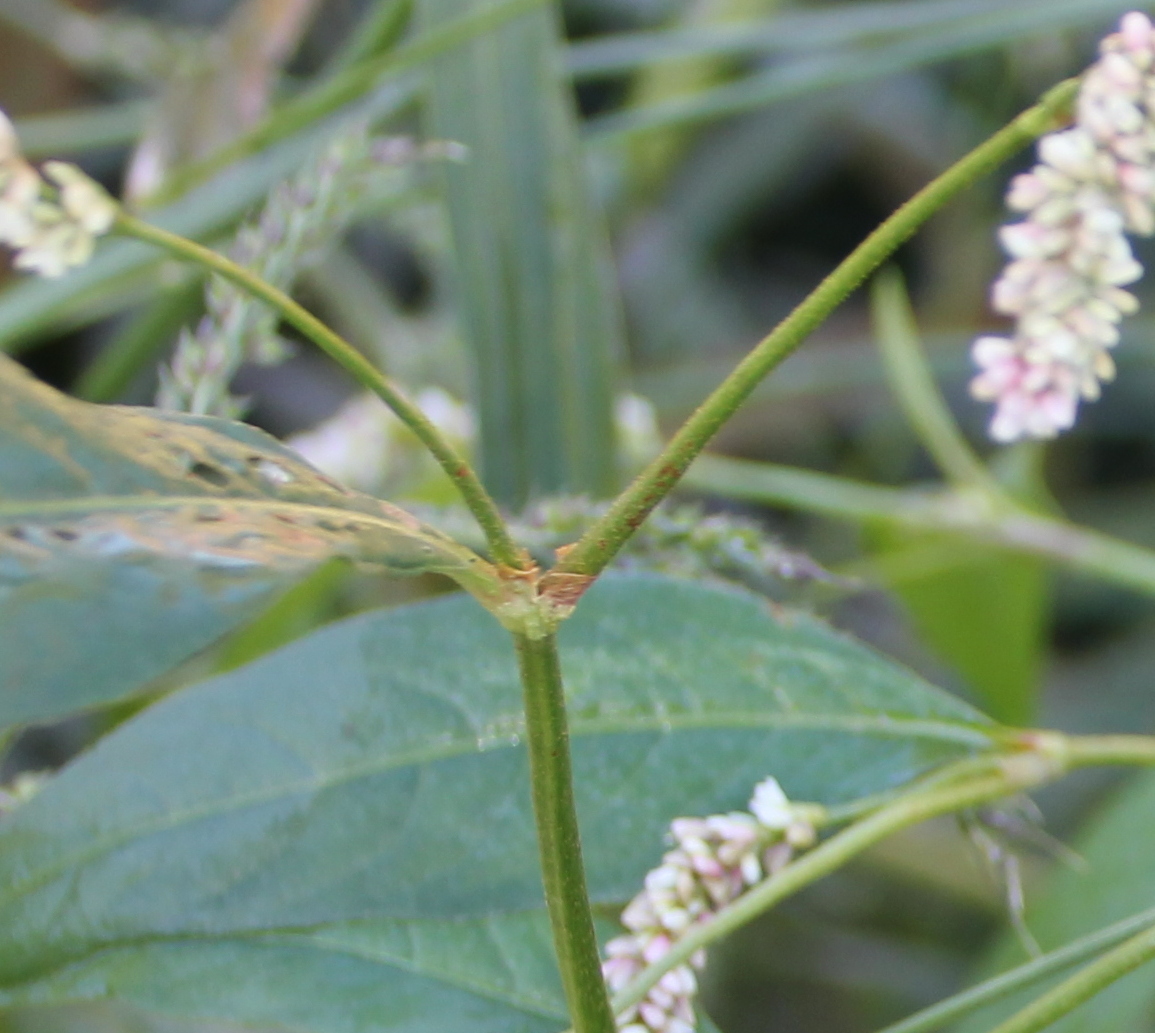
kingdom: Plantae
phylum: Tracheophyta
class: Magnoliopsida
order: Caryophyllales
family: Polygonaceae
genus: Persicaria
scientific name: Persicaria lapathifolia
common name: Curlytop knotweed
